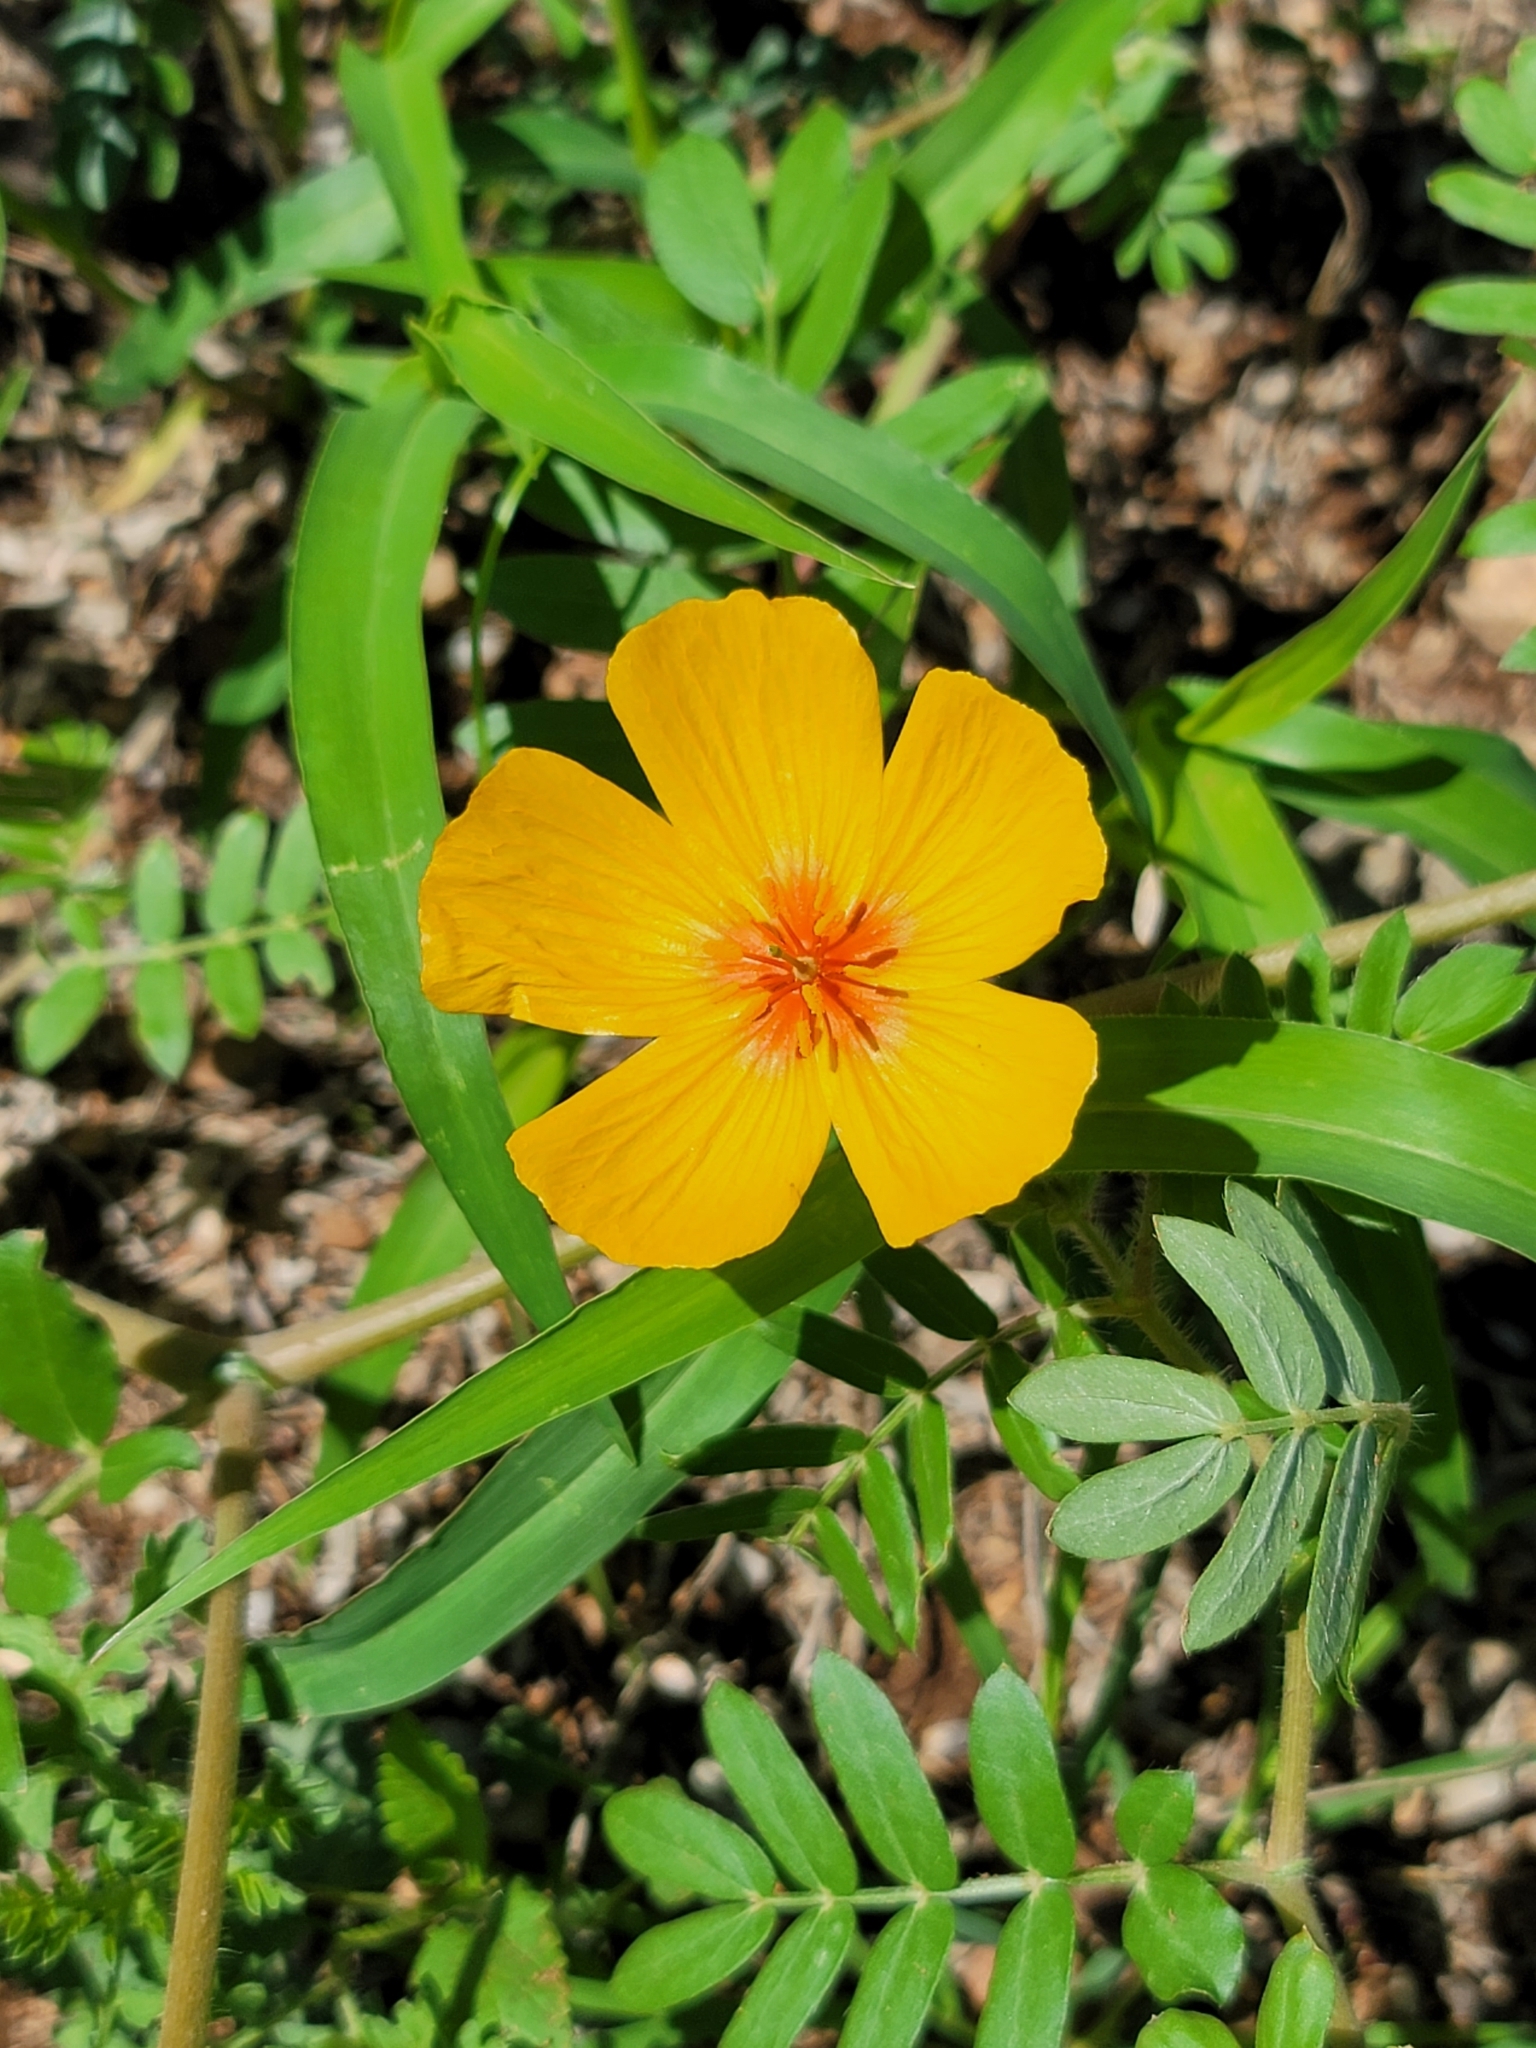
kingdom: Plantae
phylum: Tracheophyta
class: Magnoliopsida
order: Zygophyllales
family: Zygophyllaceae
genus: Kallstroemia
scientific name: Kallstroemia grandiflora
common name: Arizona-poppy
